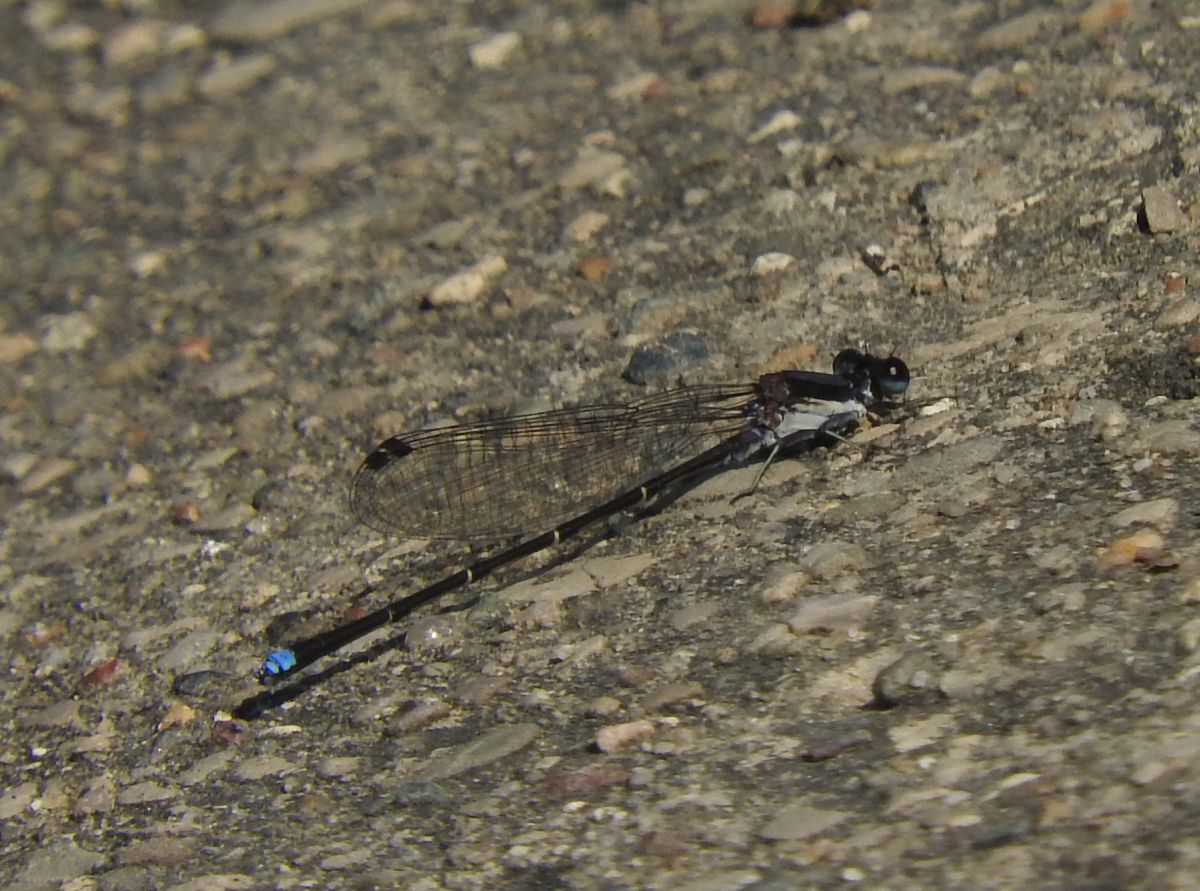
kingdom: Animalia
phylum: Arthropoda
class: Insecta
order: Odonata
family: Coenagrionidae
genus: Argia
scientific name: Argia tibialis
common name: Blue-tipped dancer
